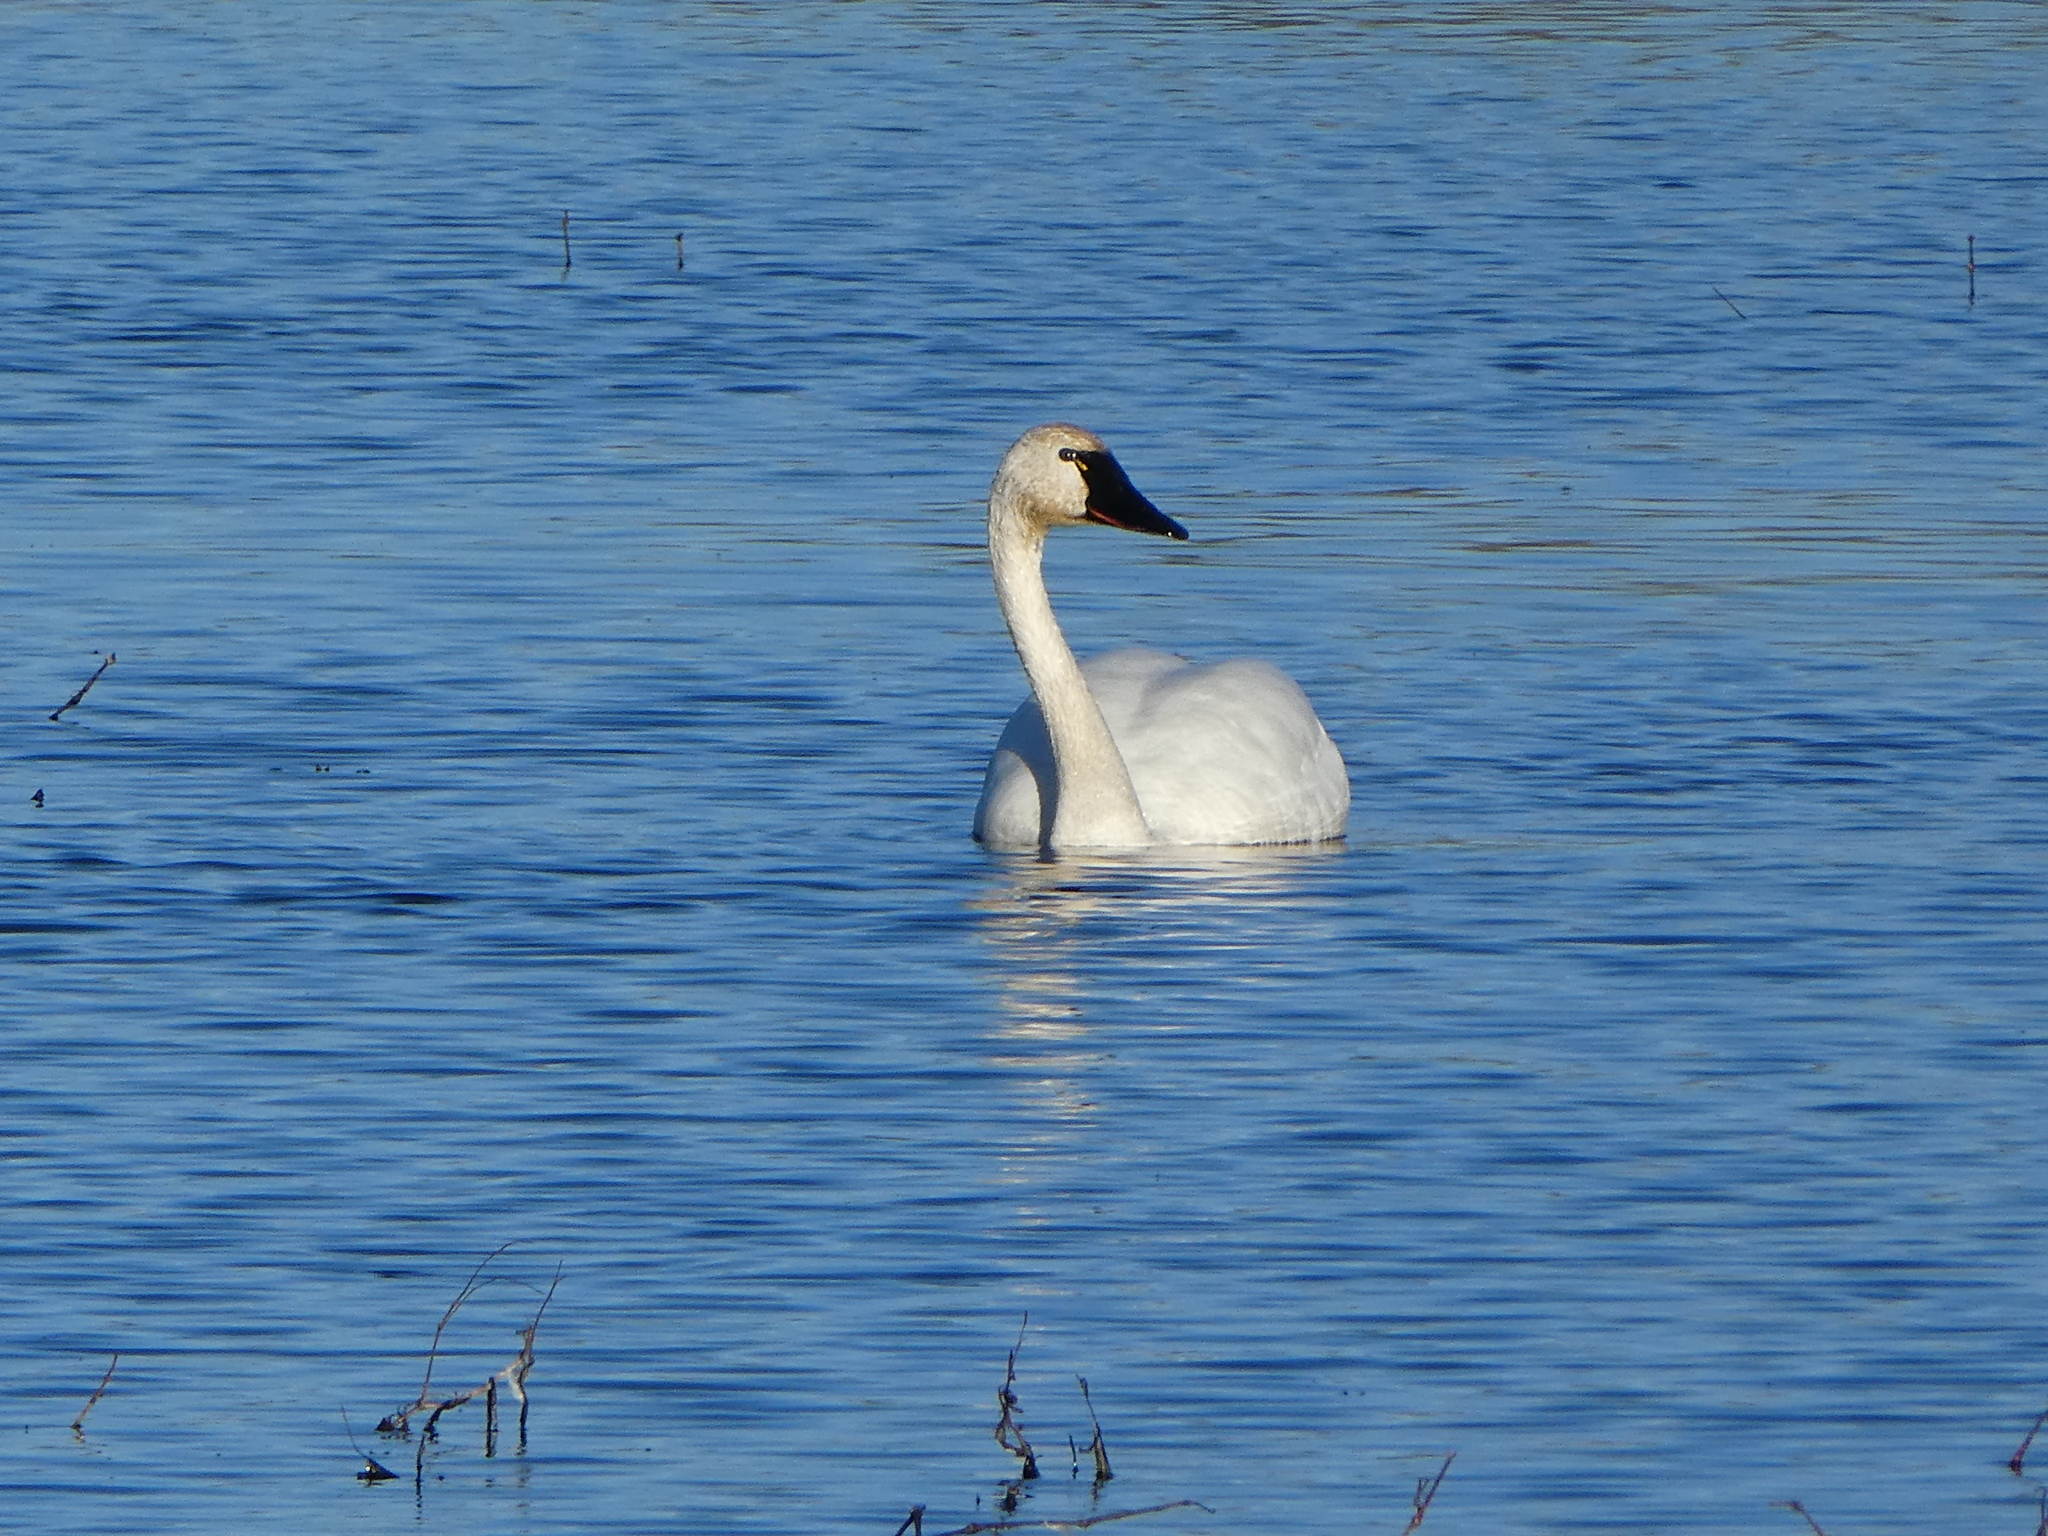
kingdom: Animalia
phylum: Chordata
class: Aves
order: Anseriformes
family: Anatidae
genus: Cygnus
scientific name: Cygnus columbianus
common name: Tundra swan
